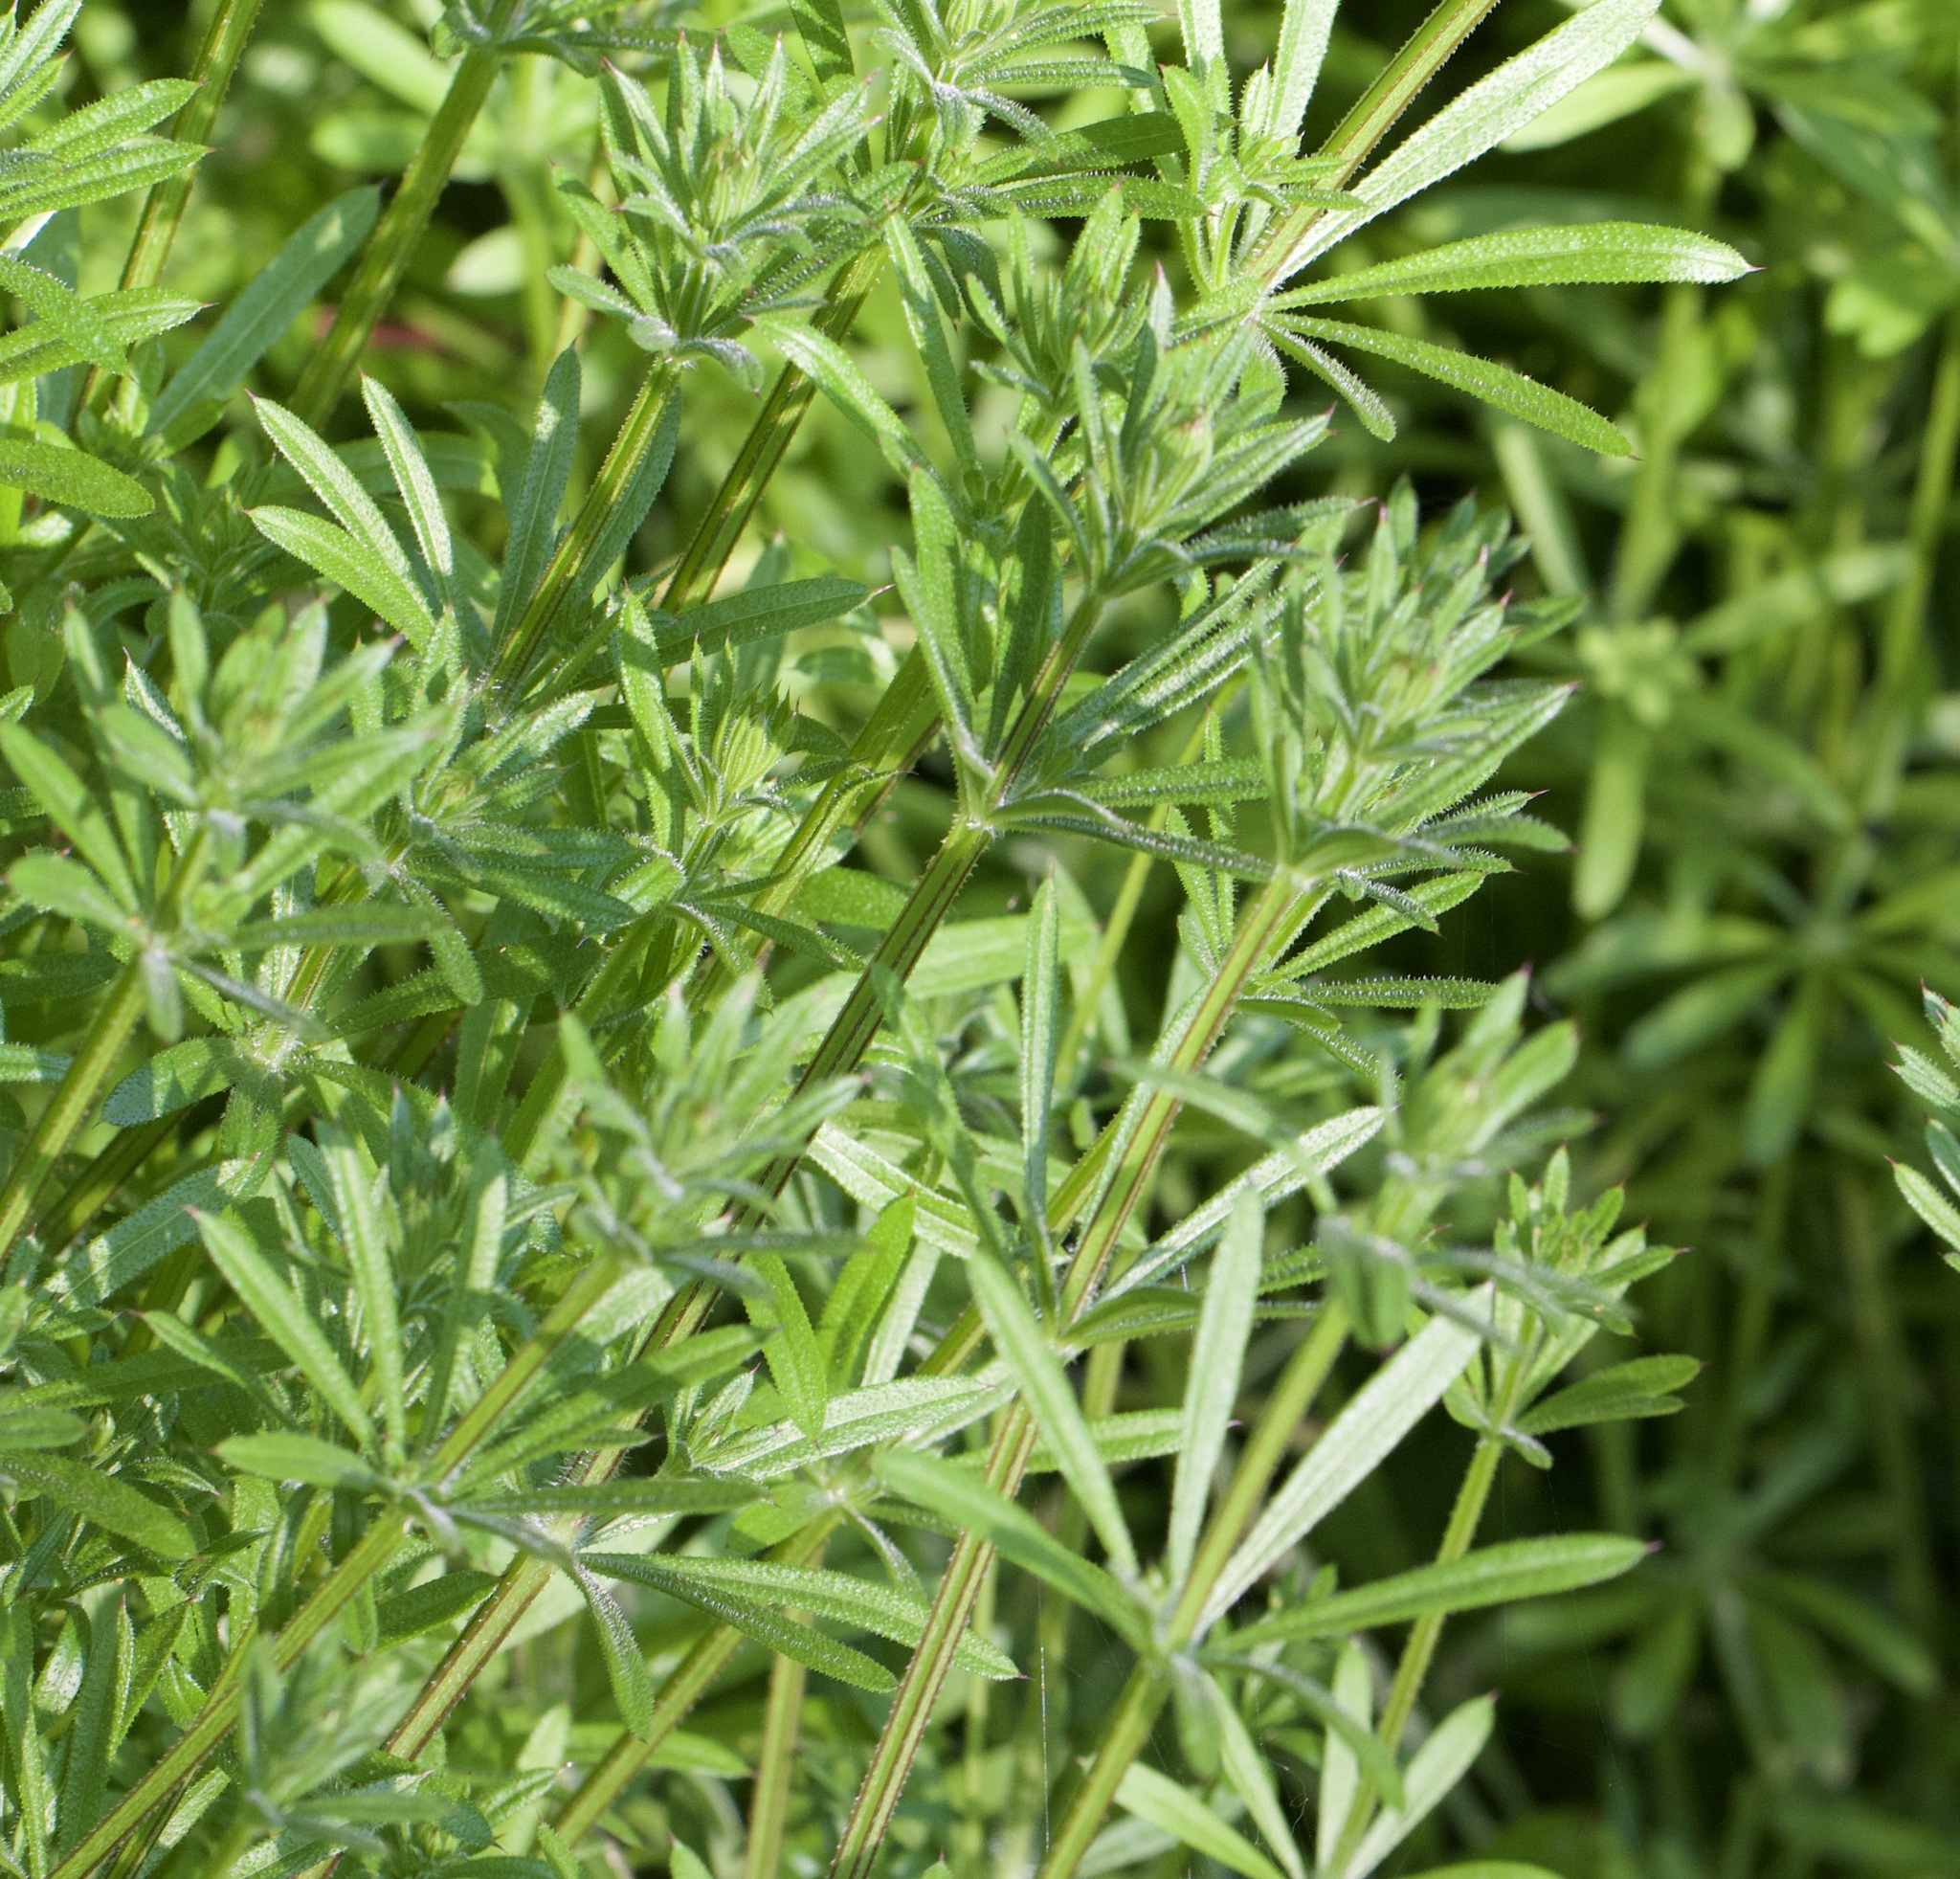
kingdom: Plantae
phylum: Tracheophyta
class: Magnoliopsida
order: Gentianales
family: Rubiaceae
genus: Galium
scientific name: Galium aparine
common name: Cleavers
